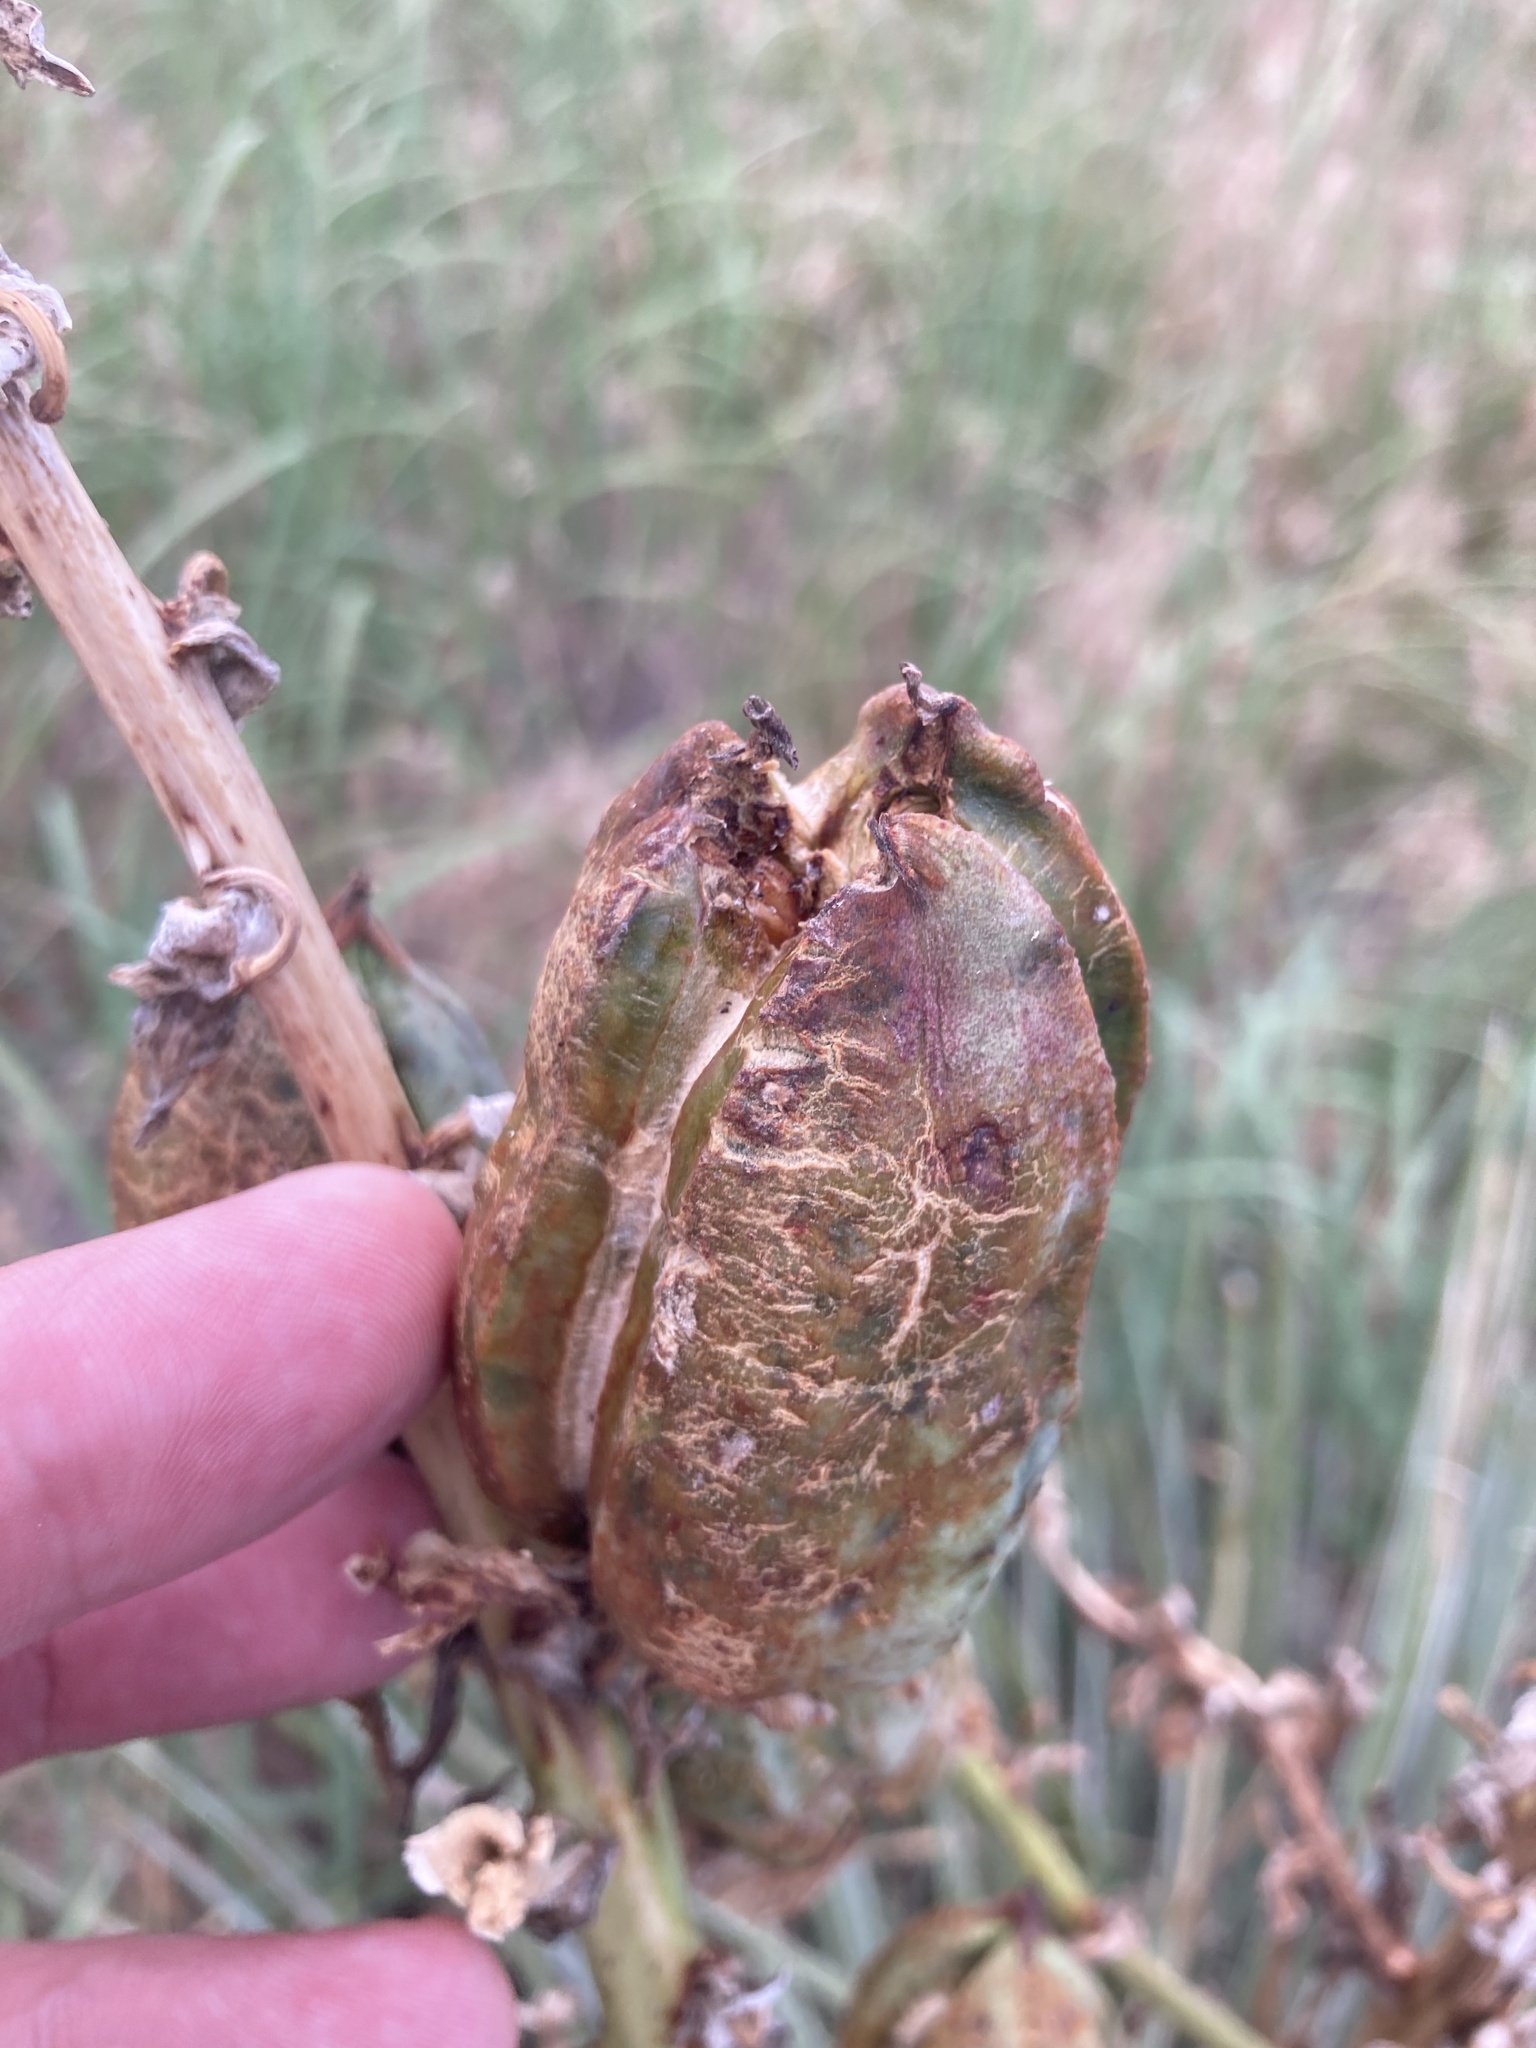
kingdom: Plantae
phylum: Tracheophyta
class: Liliopsida
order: Asparagales
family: Asparagaceae
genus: Yucca
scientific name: Yucca glauca
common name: Great plains yucca
